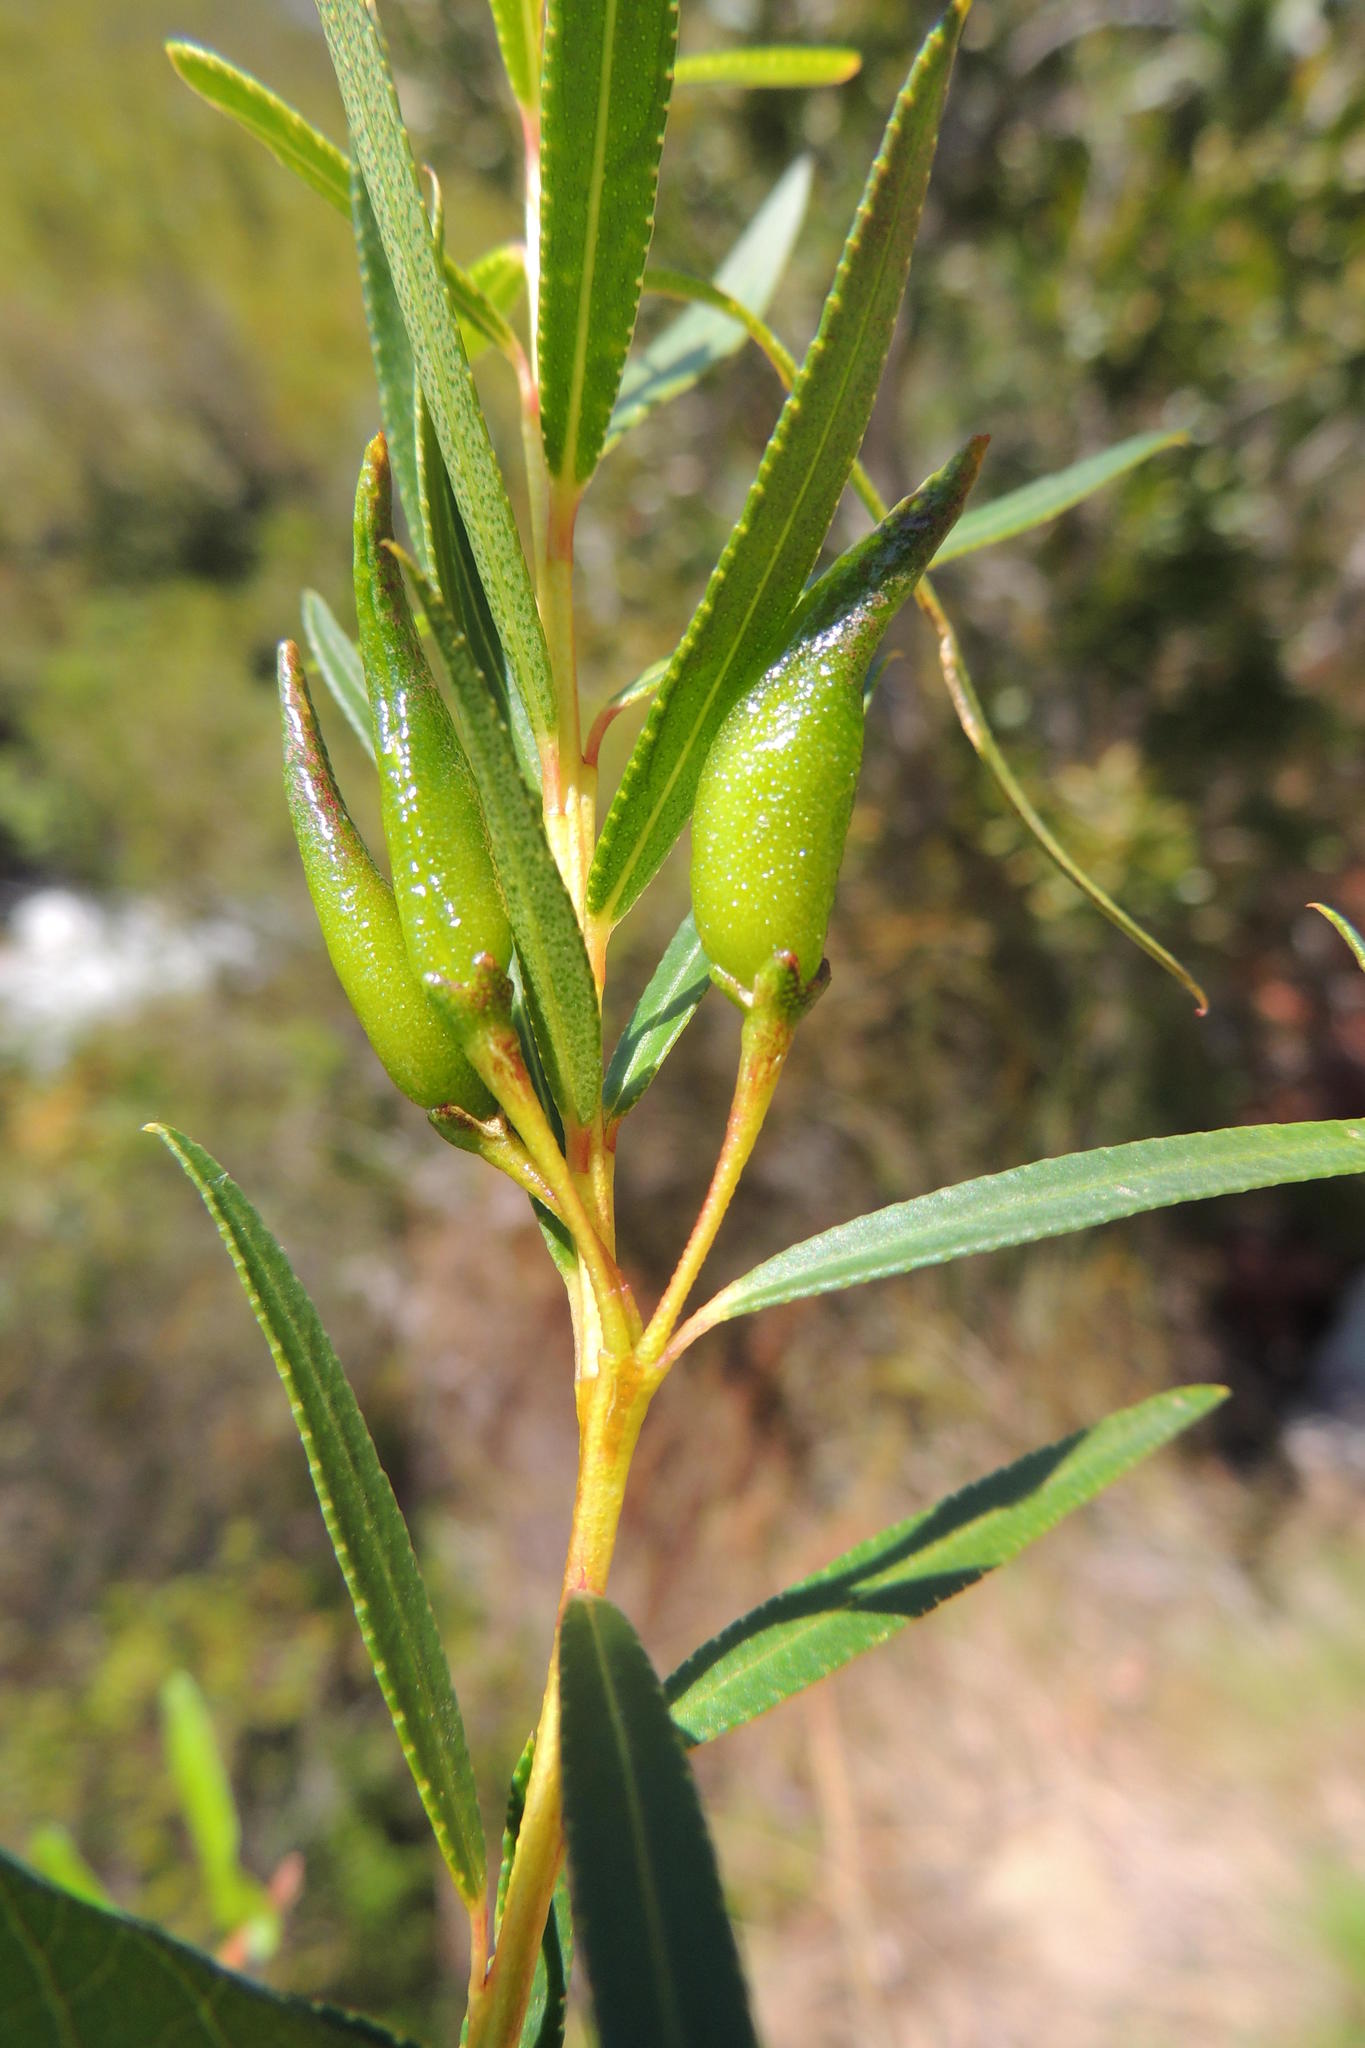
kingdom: Plantae
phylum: Tracheophyta
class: Magnoliopsida
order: Sapindales
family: Rutaceae
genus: Empleurum
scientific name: Empleurum unicapsulare
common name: False buchu
